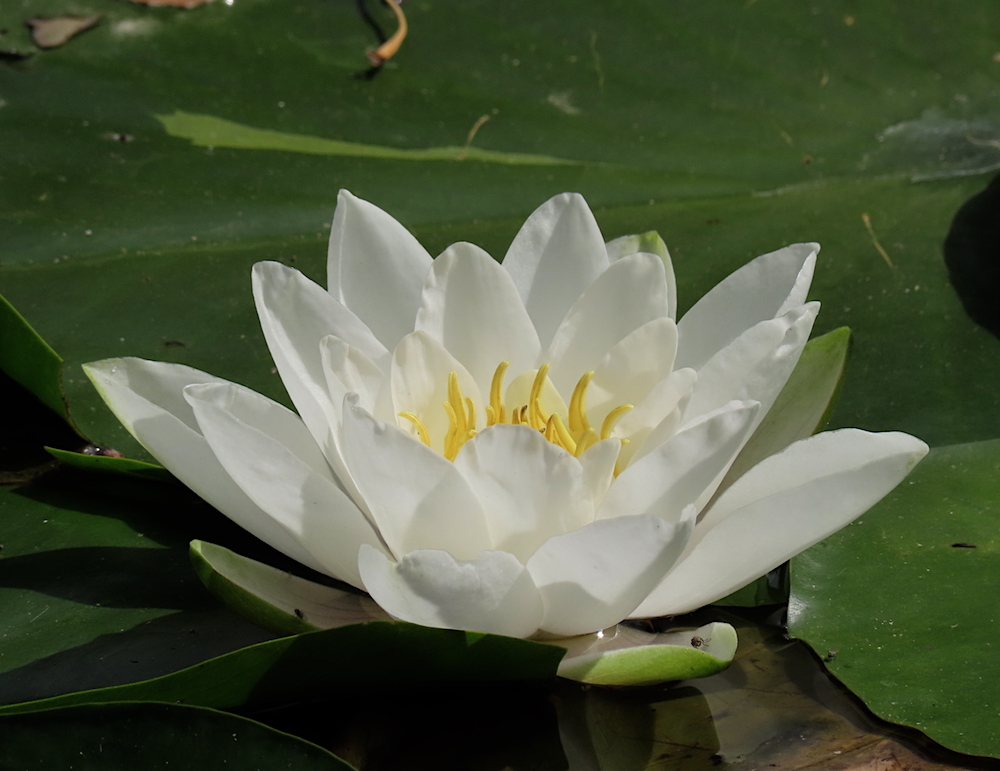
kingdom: Plantae
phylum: Tracheophyta
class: Magnoliopsida
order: Nymphaeales
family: Nymphaeaceae
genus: Nymphaea
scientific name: Nymphaea alba
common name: White water-lily
